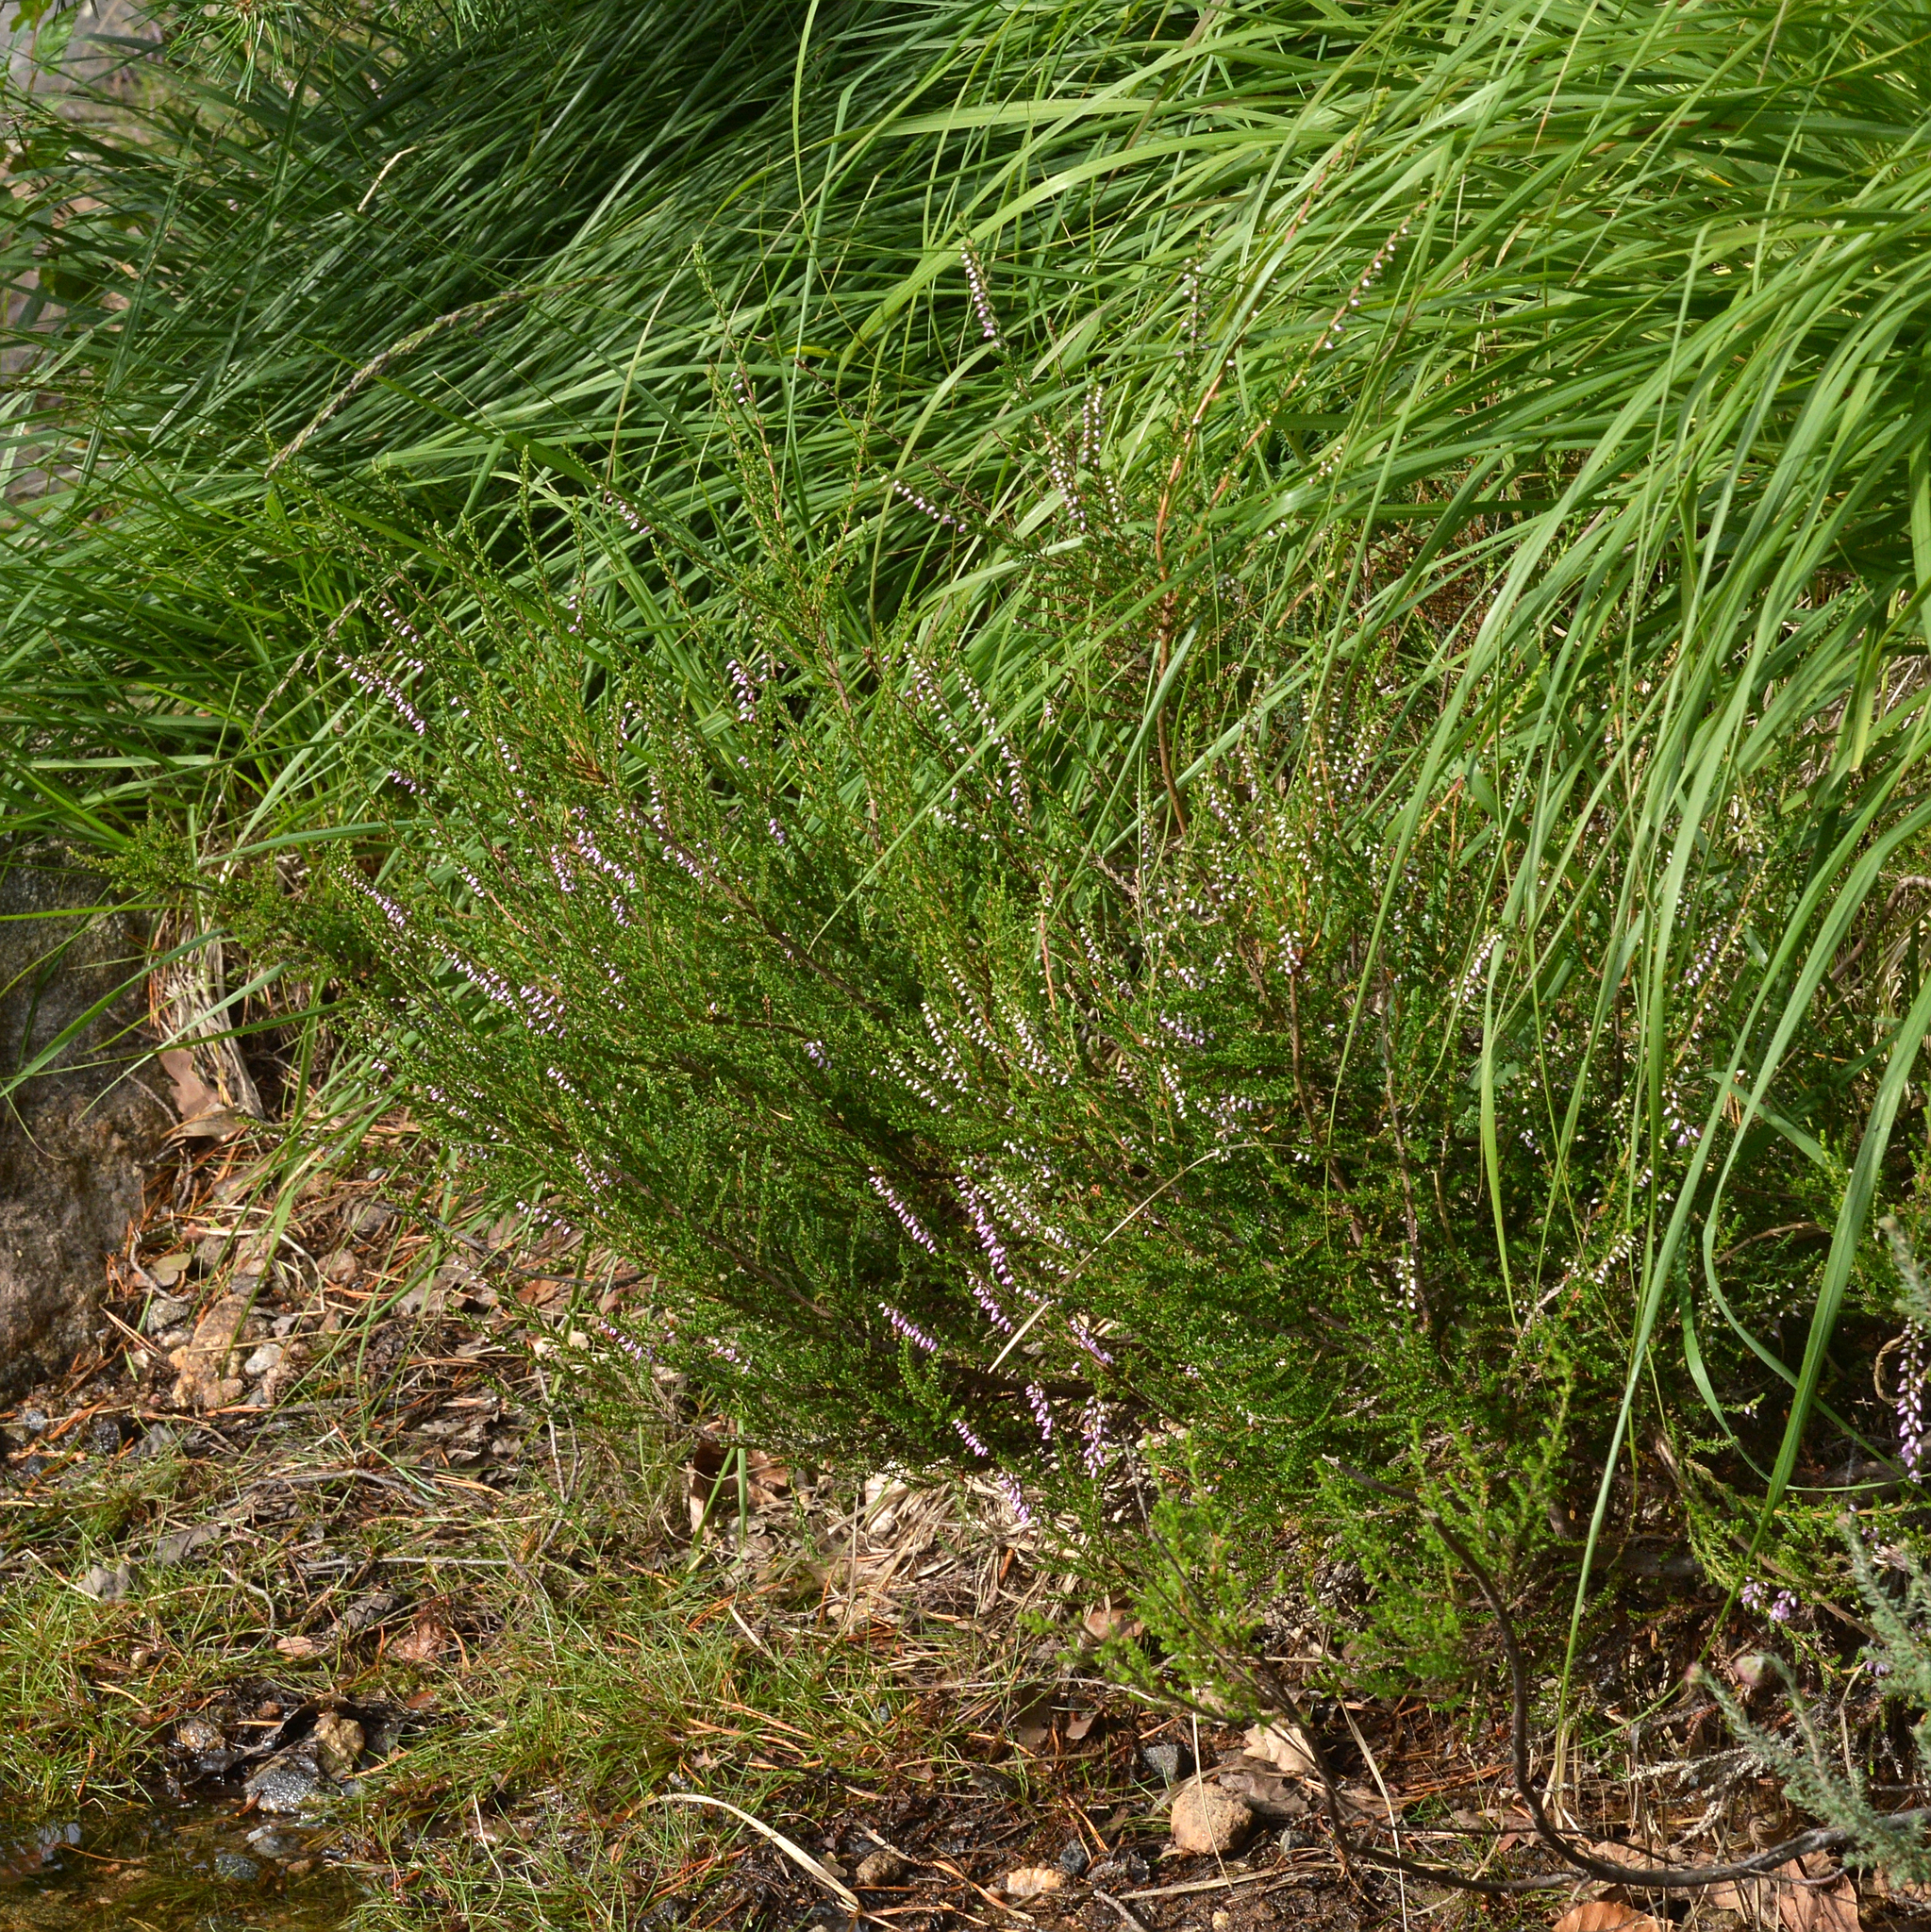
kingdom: Plantae
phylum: Tracheophyta
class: Magnoliopsida
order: Ericales
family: Ericaceae
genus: Calluna
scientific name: Calluna vulgaris
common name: Heather
